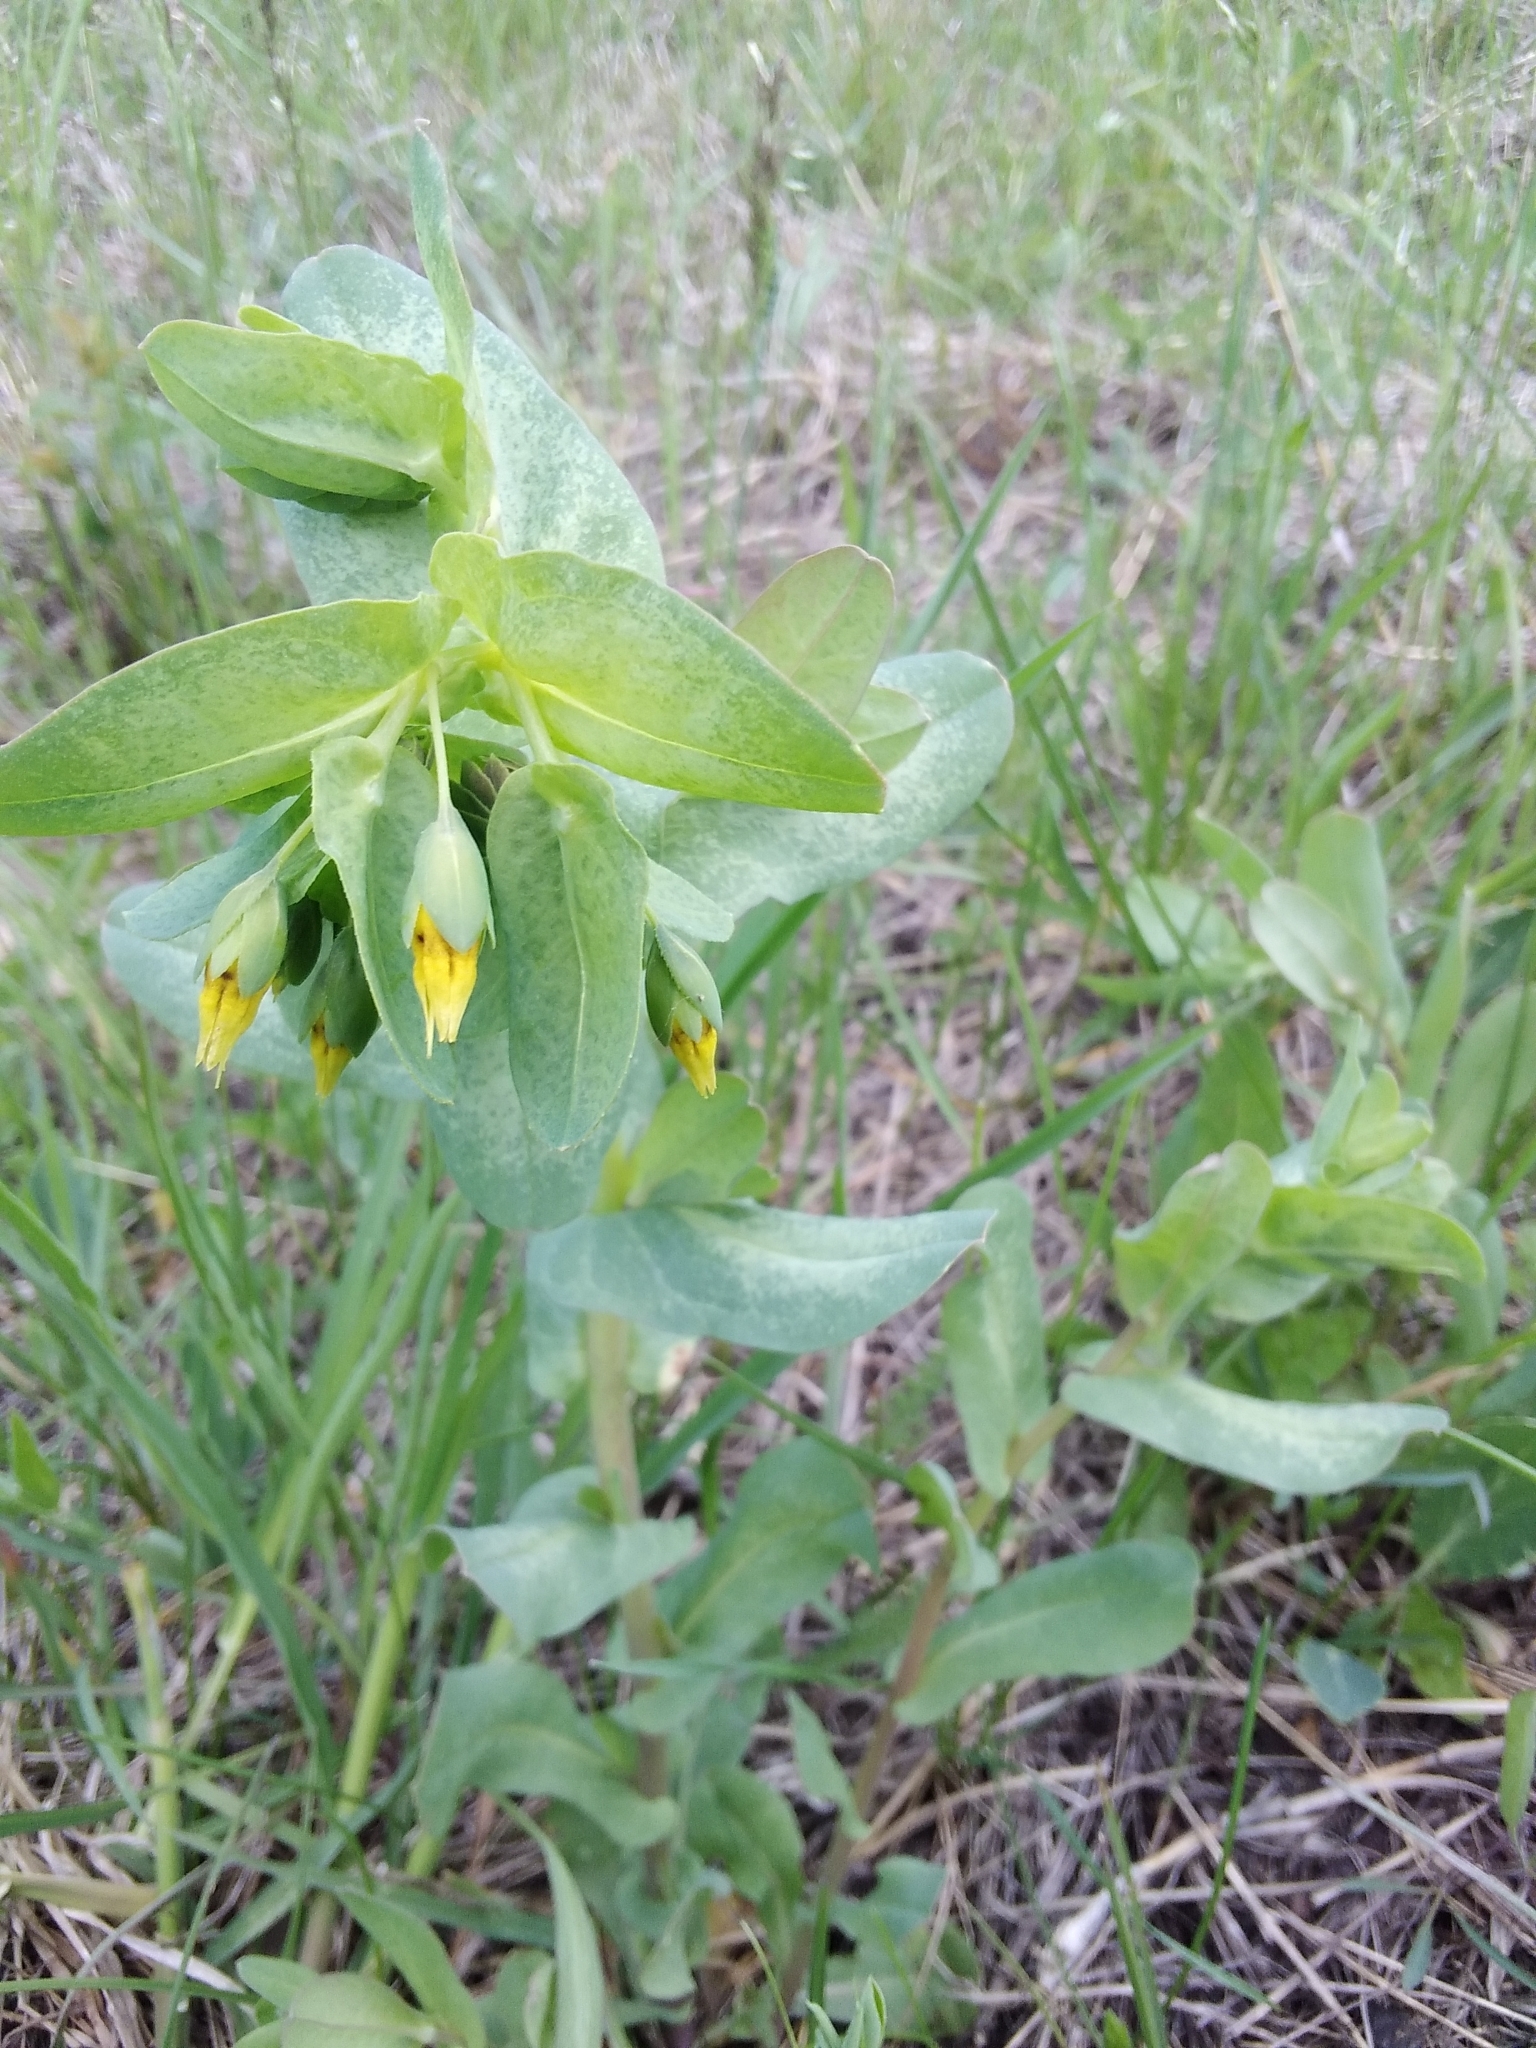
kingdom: Plantae
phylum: Tracheophyta
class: Magnoliopsida
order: Boraginales
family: Boraginaceae
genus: Cerinthe
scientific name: Cerinthe minor
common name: Lesser honeywort
